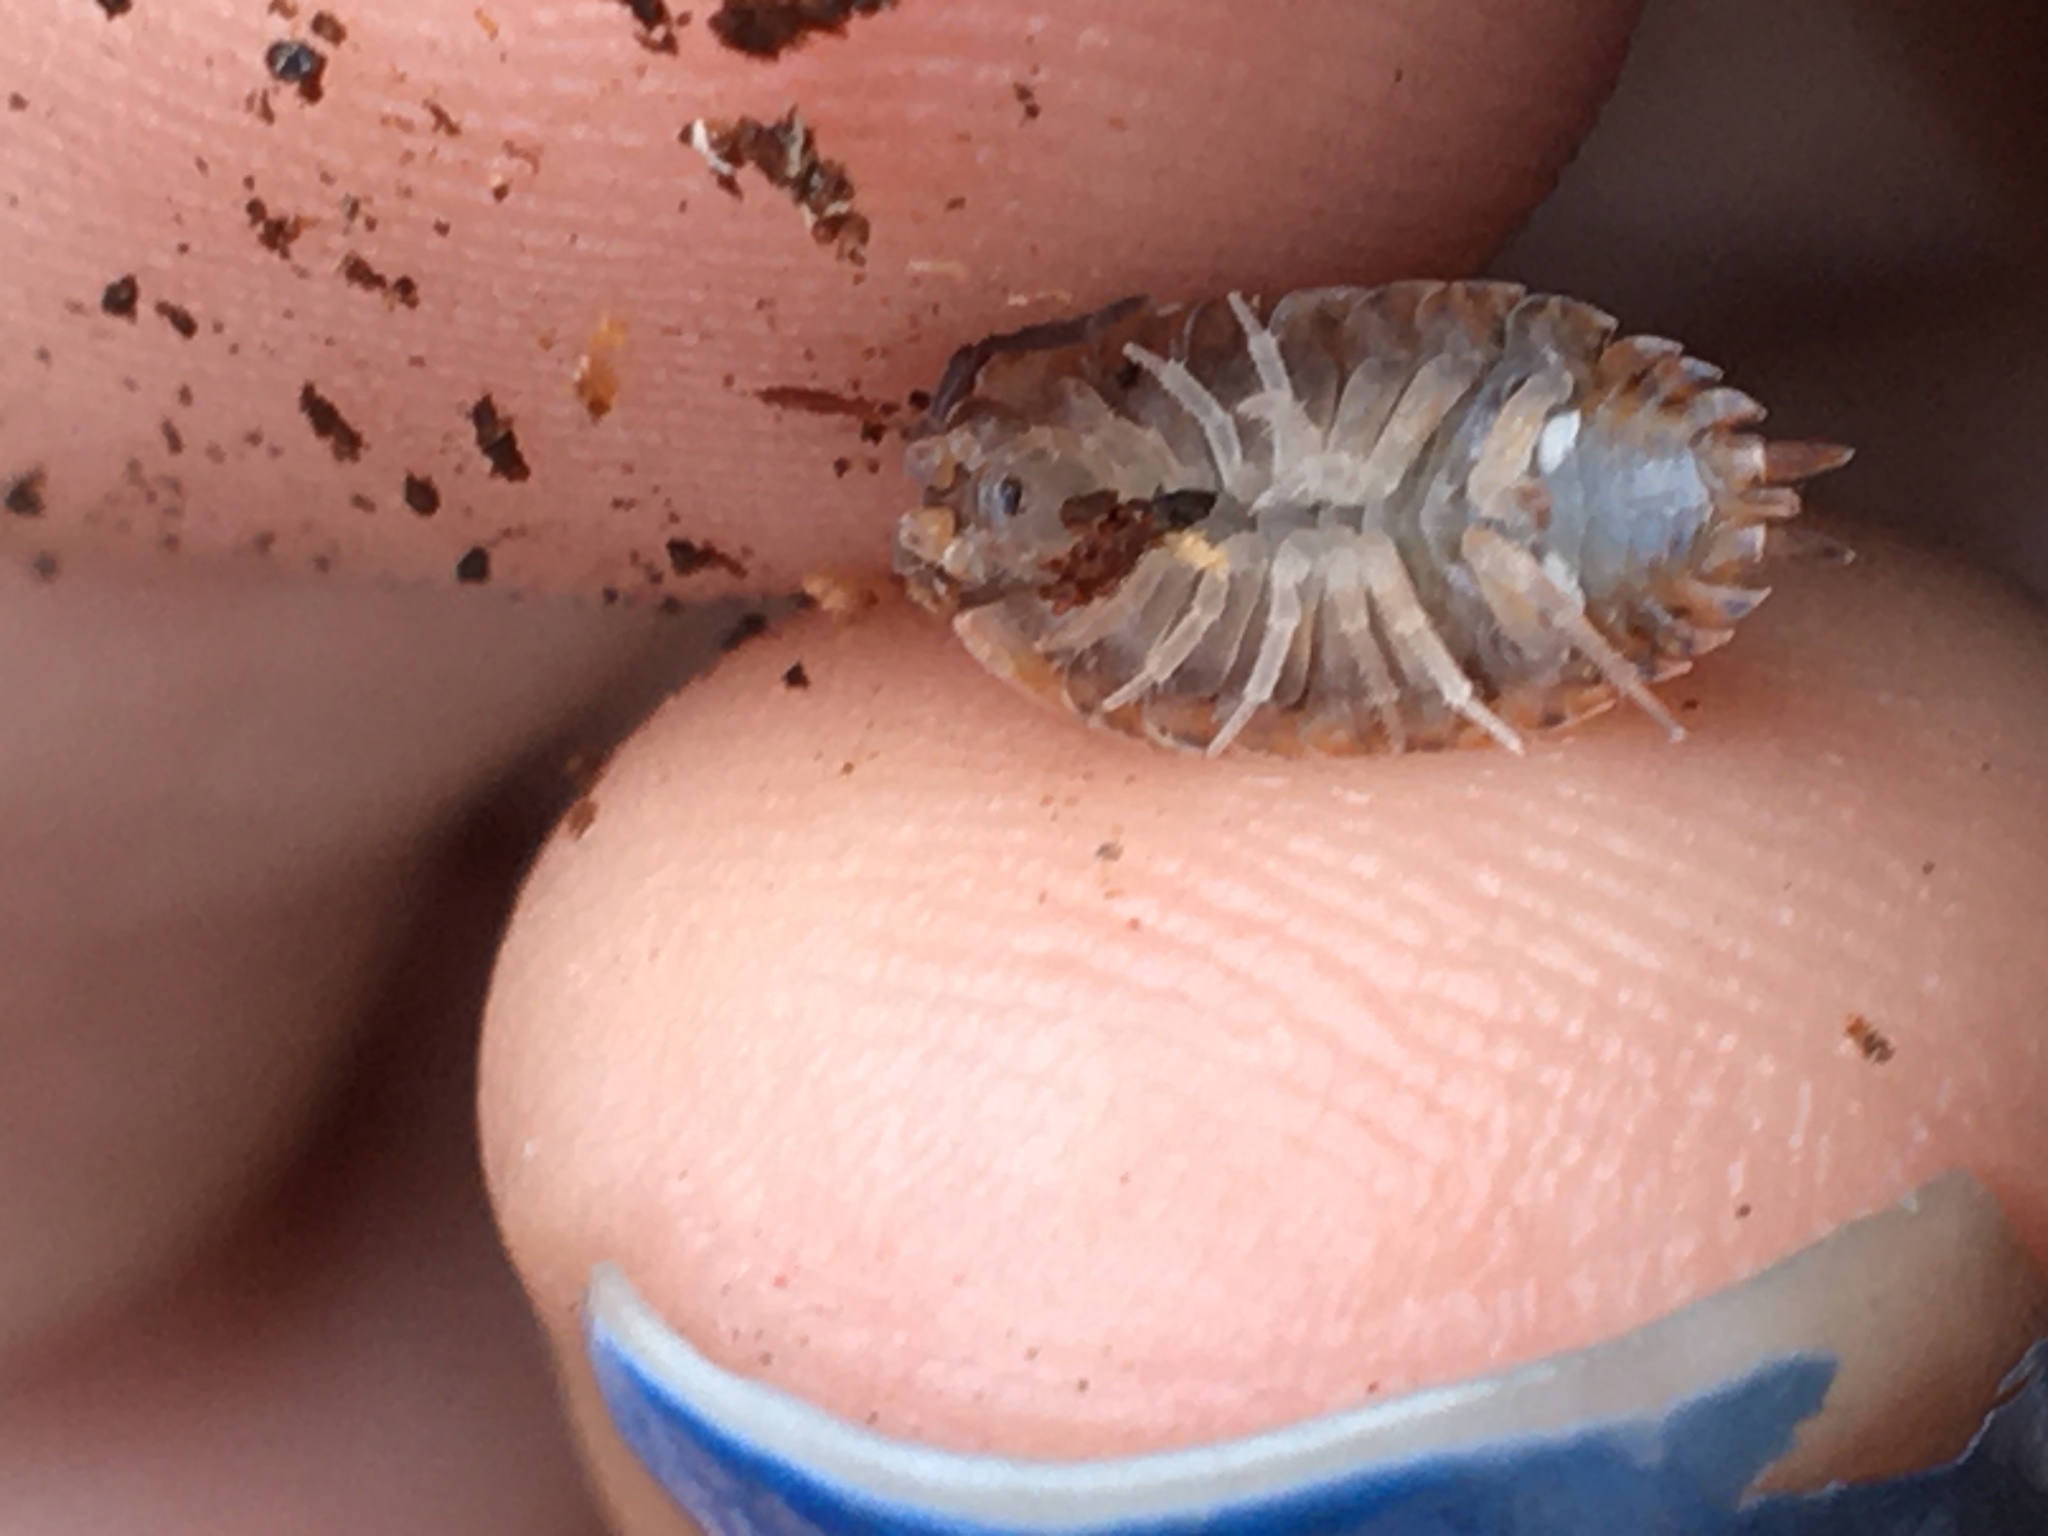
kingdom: Animalia
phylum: Arthropoda
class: Malacostraca
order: Isopoda
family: Porcellionidae
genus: Porcellio
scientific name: Porcellio scaber
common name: Common rough woodlouse
